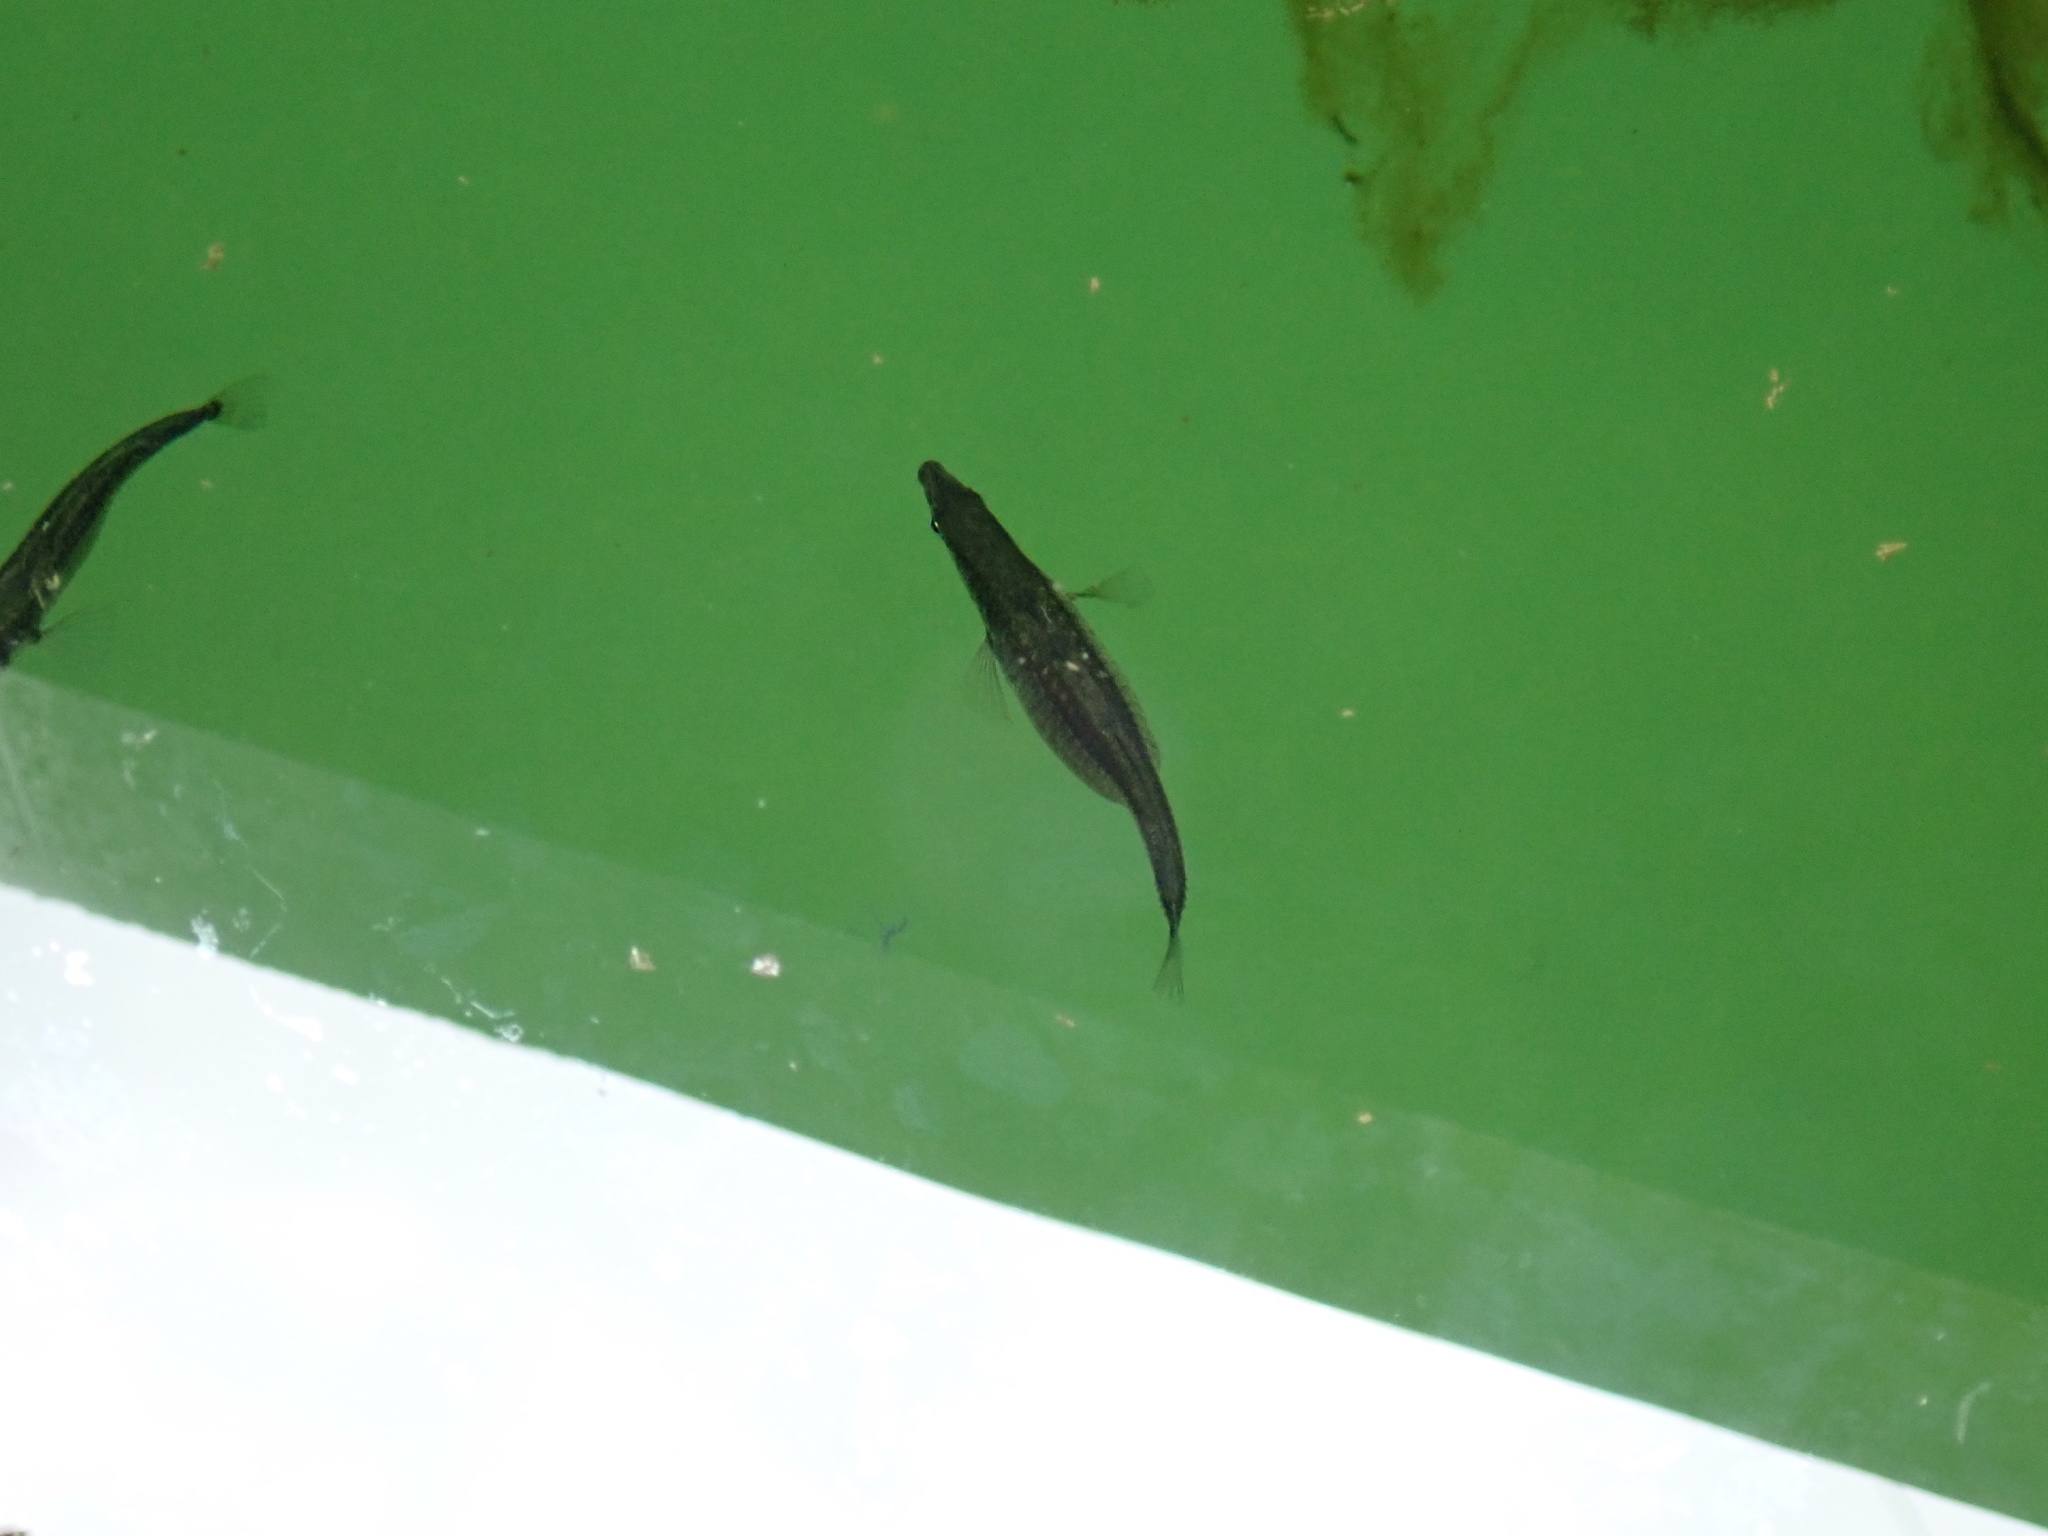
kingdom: Animalia
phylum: Chordata
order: Gasterosteiformes
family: Gasterosteidae
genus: Gasterosteus
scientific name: Gasterosteus aculeatus
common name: Three-spined stickleback
